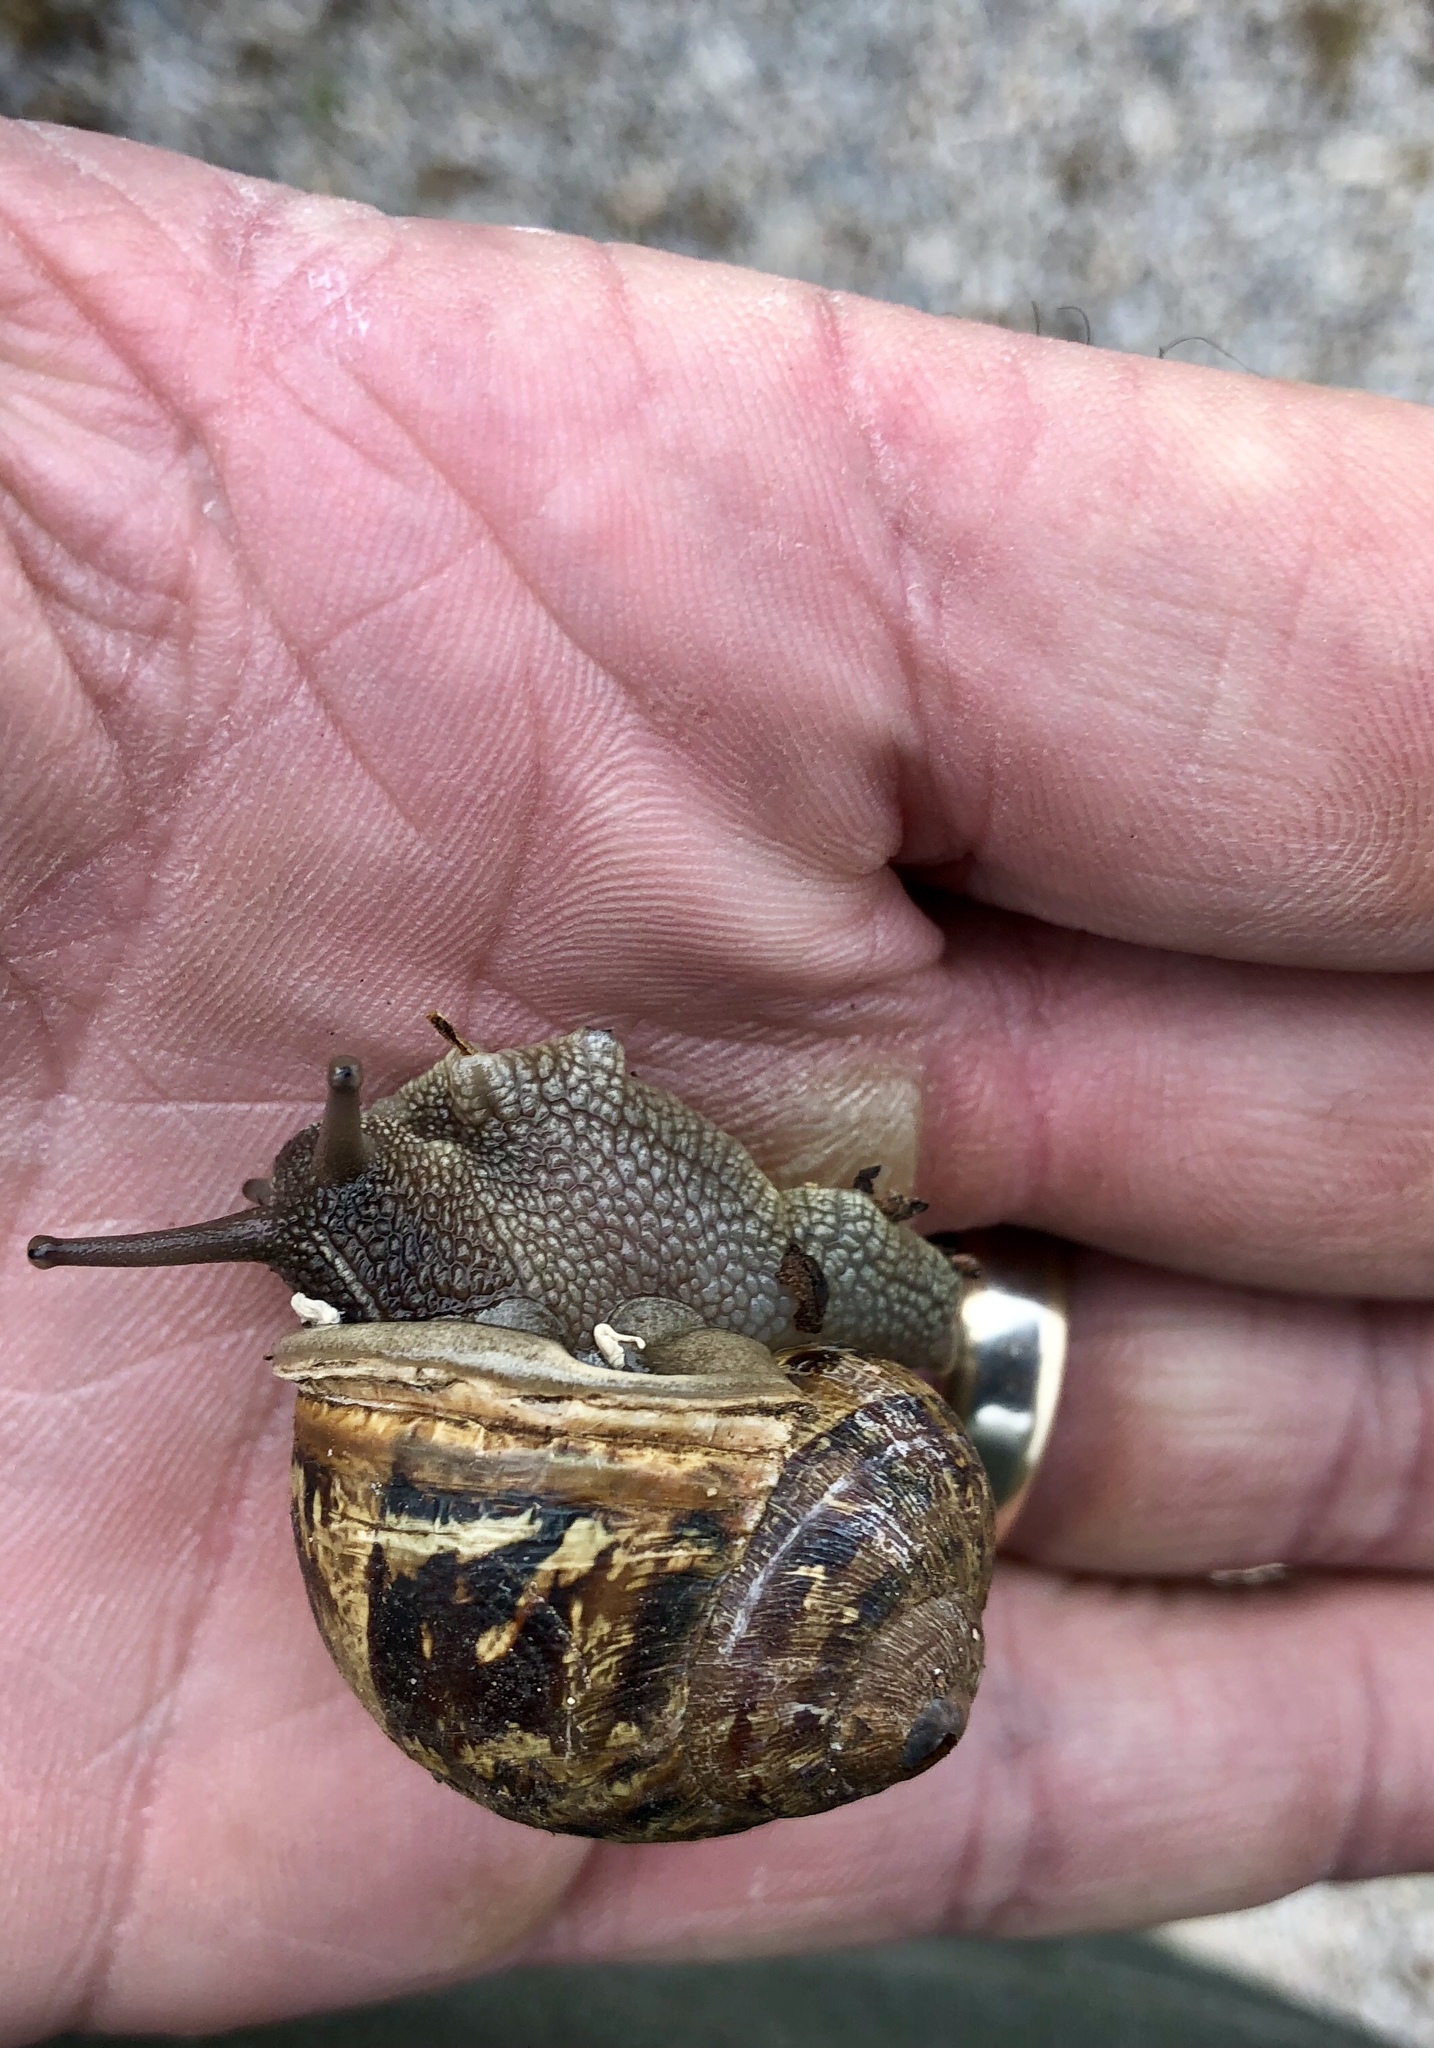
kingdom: Animalia
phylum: Mollusca
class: Gastropoda
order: Stylommatophora
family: Helicidae
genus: Cornu
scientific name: Cornu aspersum
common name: Brown garden snail
